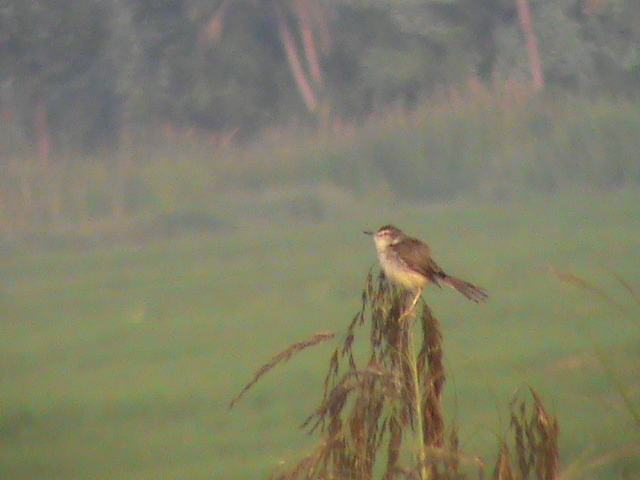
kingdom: Animalia
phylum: Chordata
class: Aves
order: Passeriformes
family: Cisticolidae
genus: Prinia
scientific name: Prinia inornata
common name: Plain prinia
